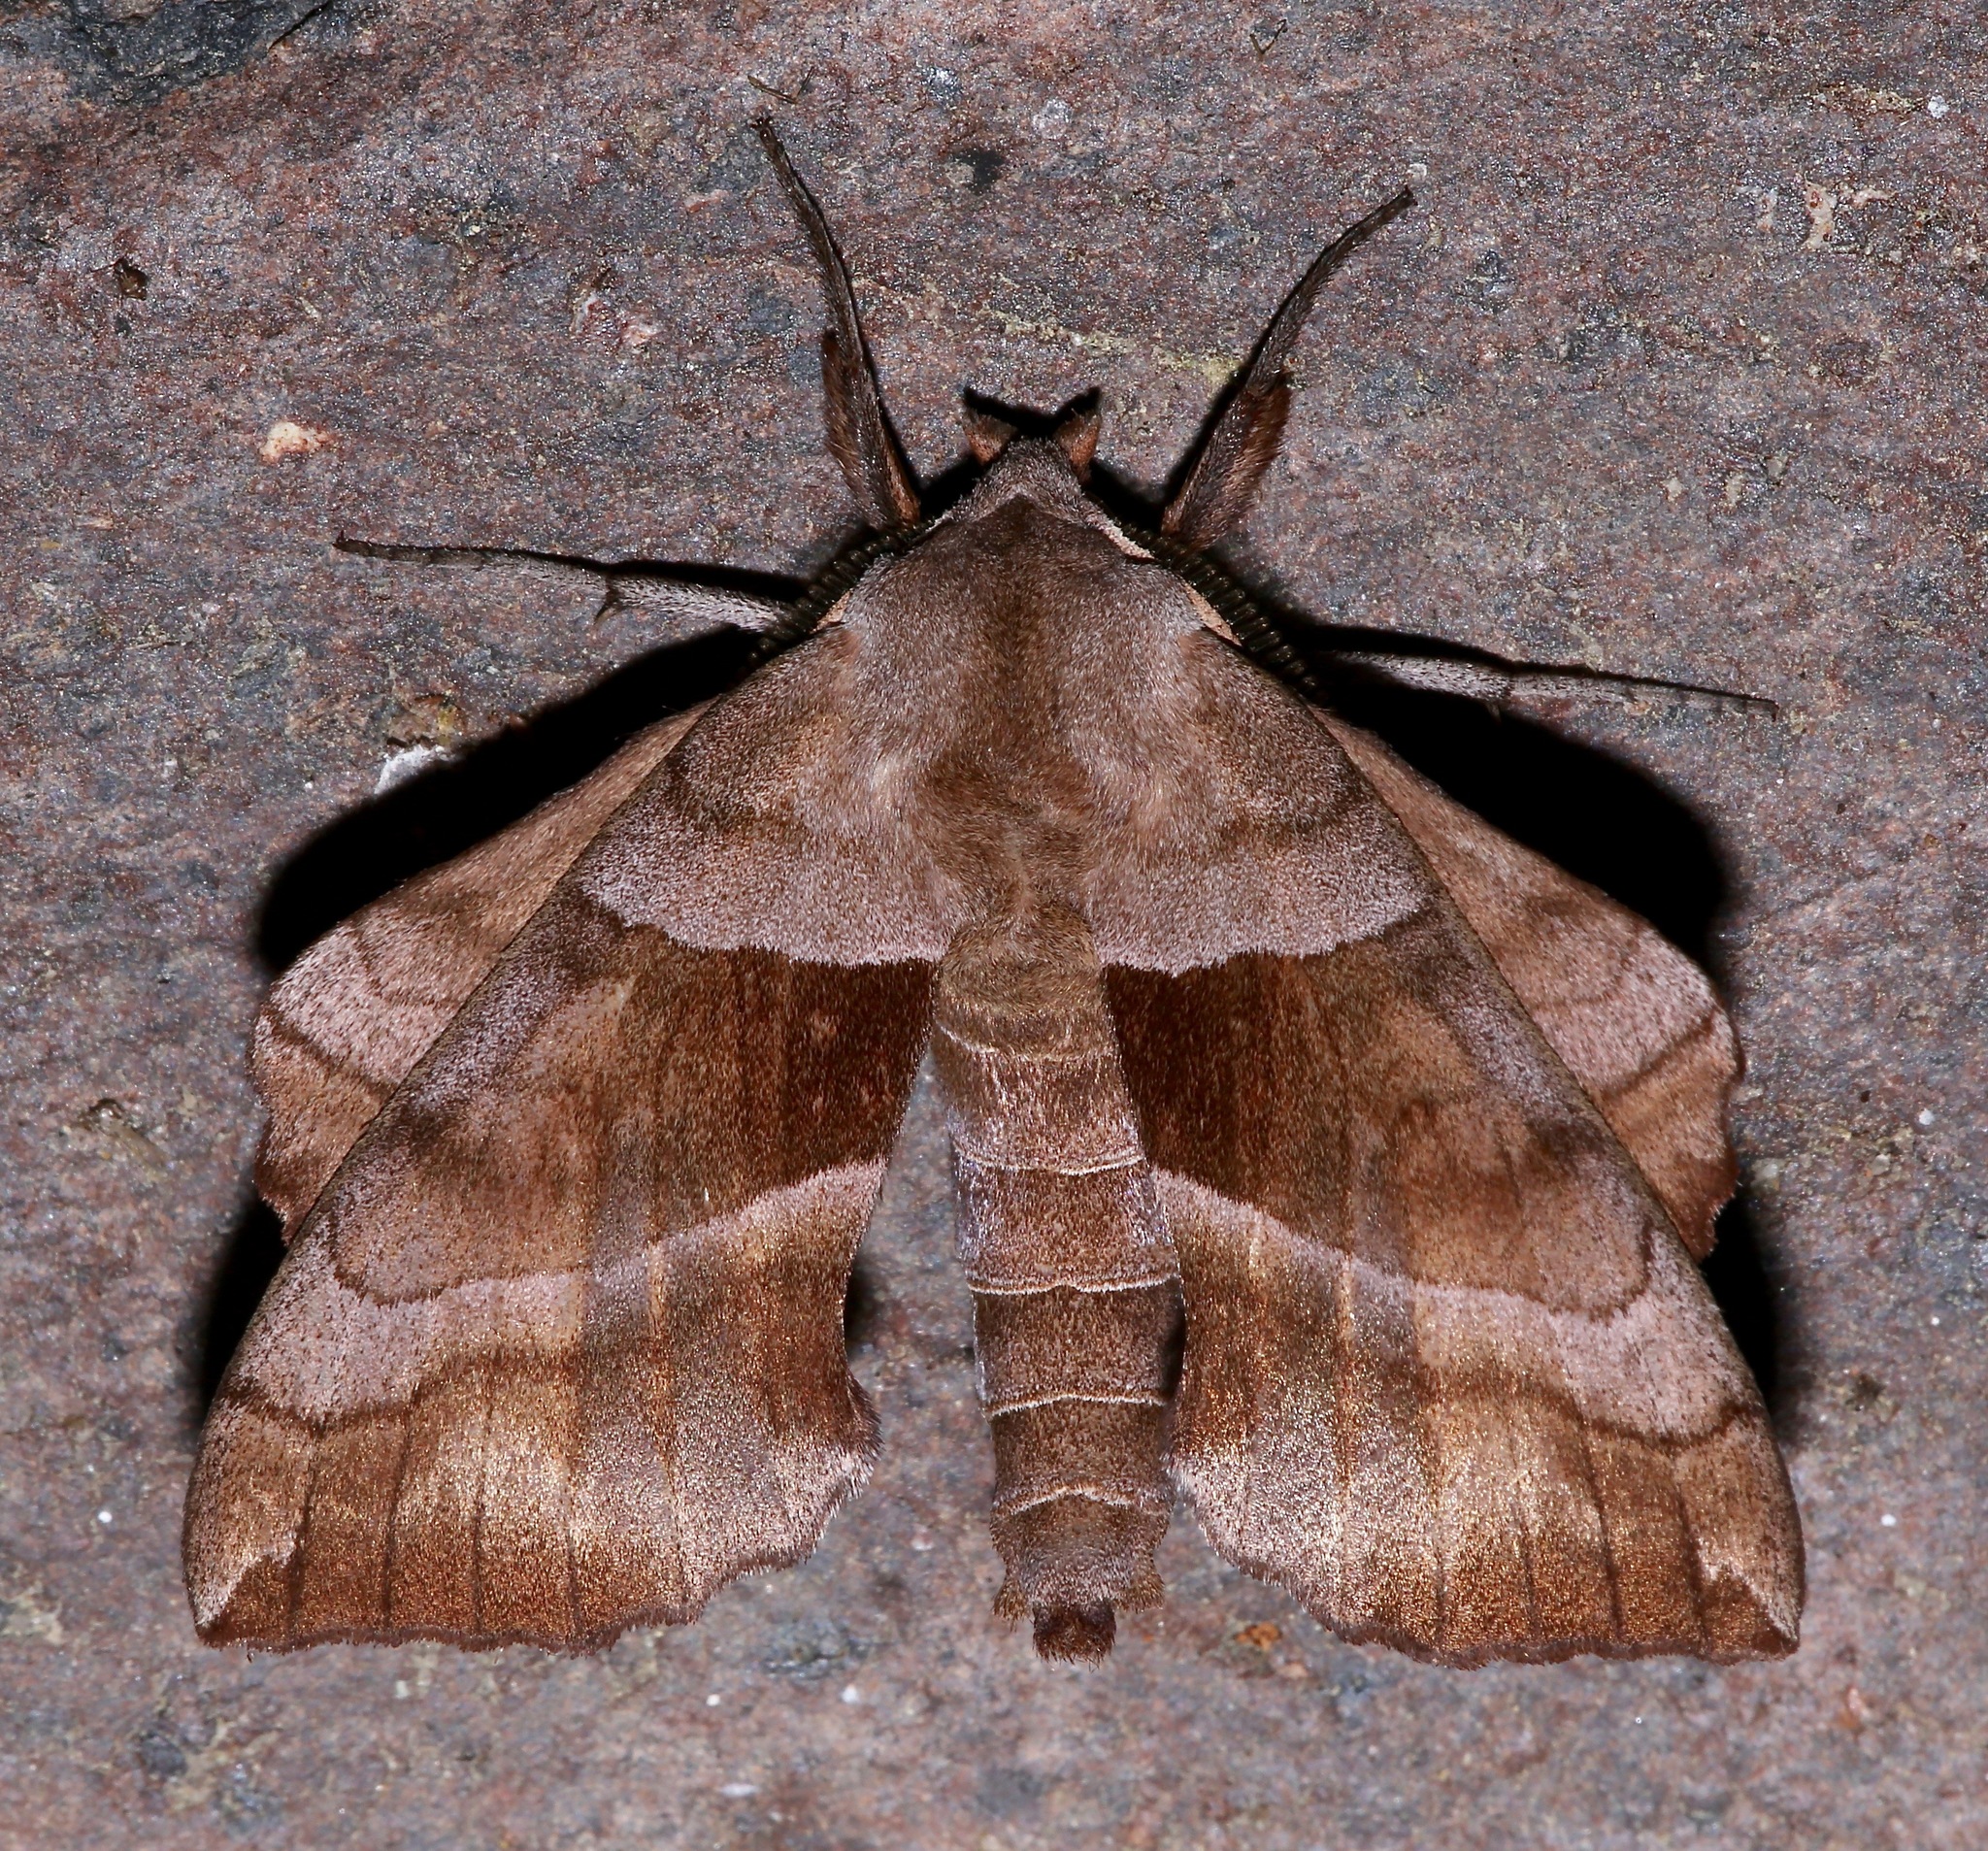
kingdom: Animalia
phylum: Arthropoda
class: Insecta
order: Lepidoptera
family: Sphingidae
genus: Amorpha
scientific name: Amorpha juglandis
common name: Walnut sphinx
